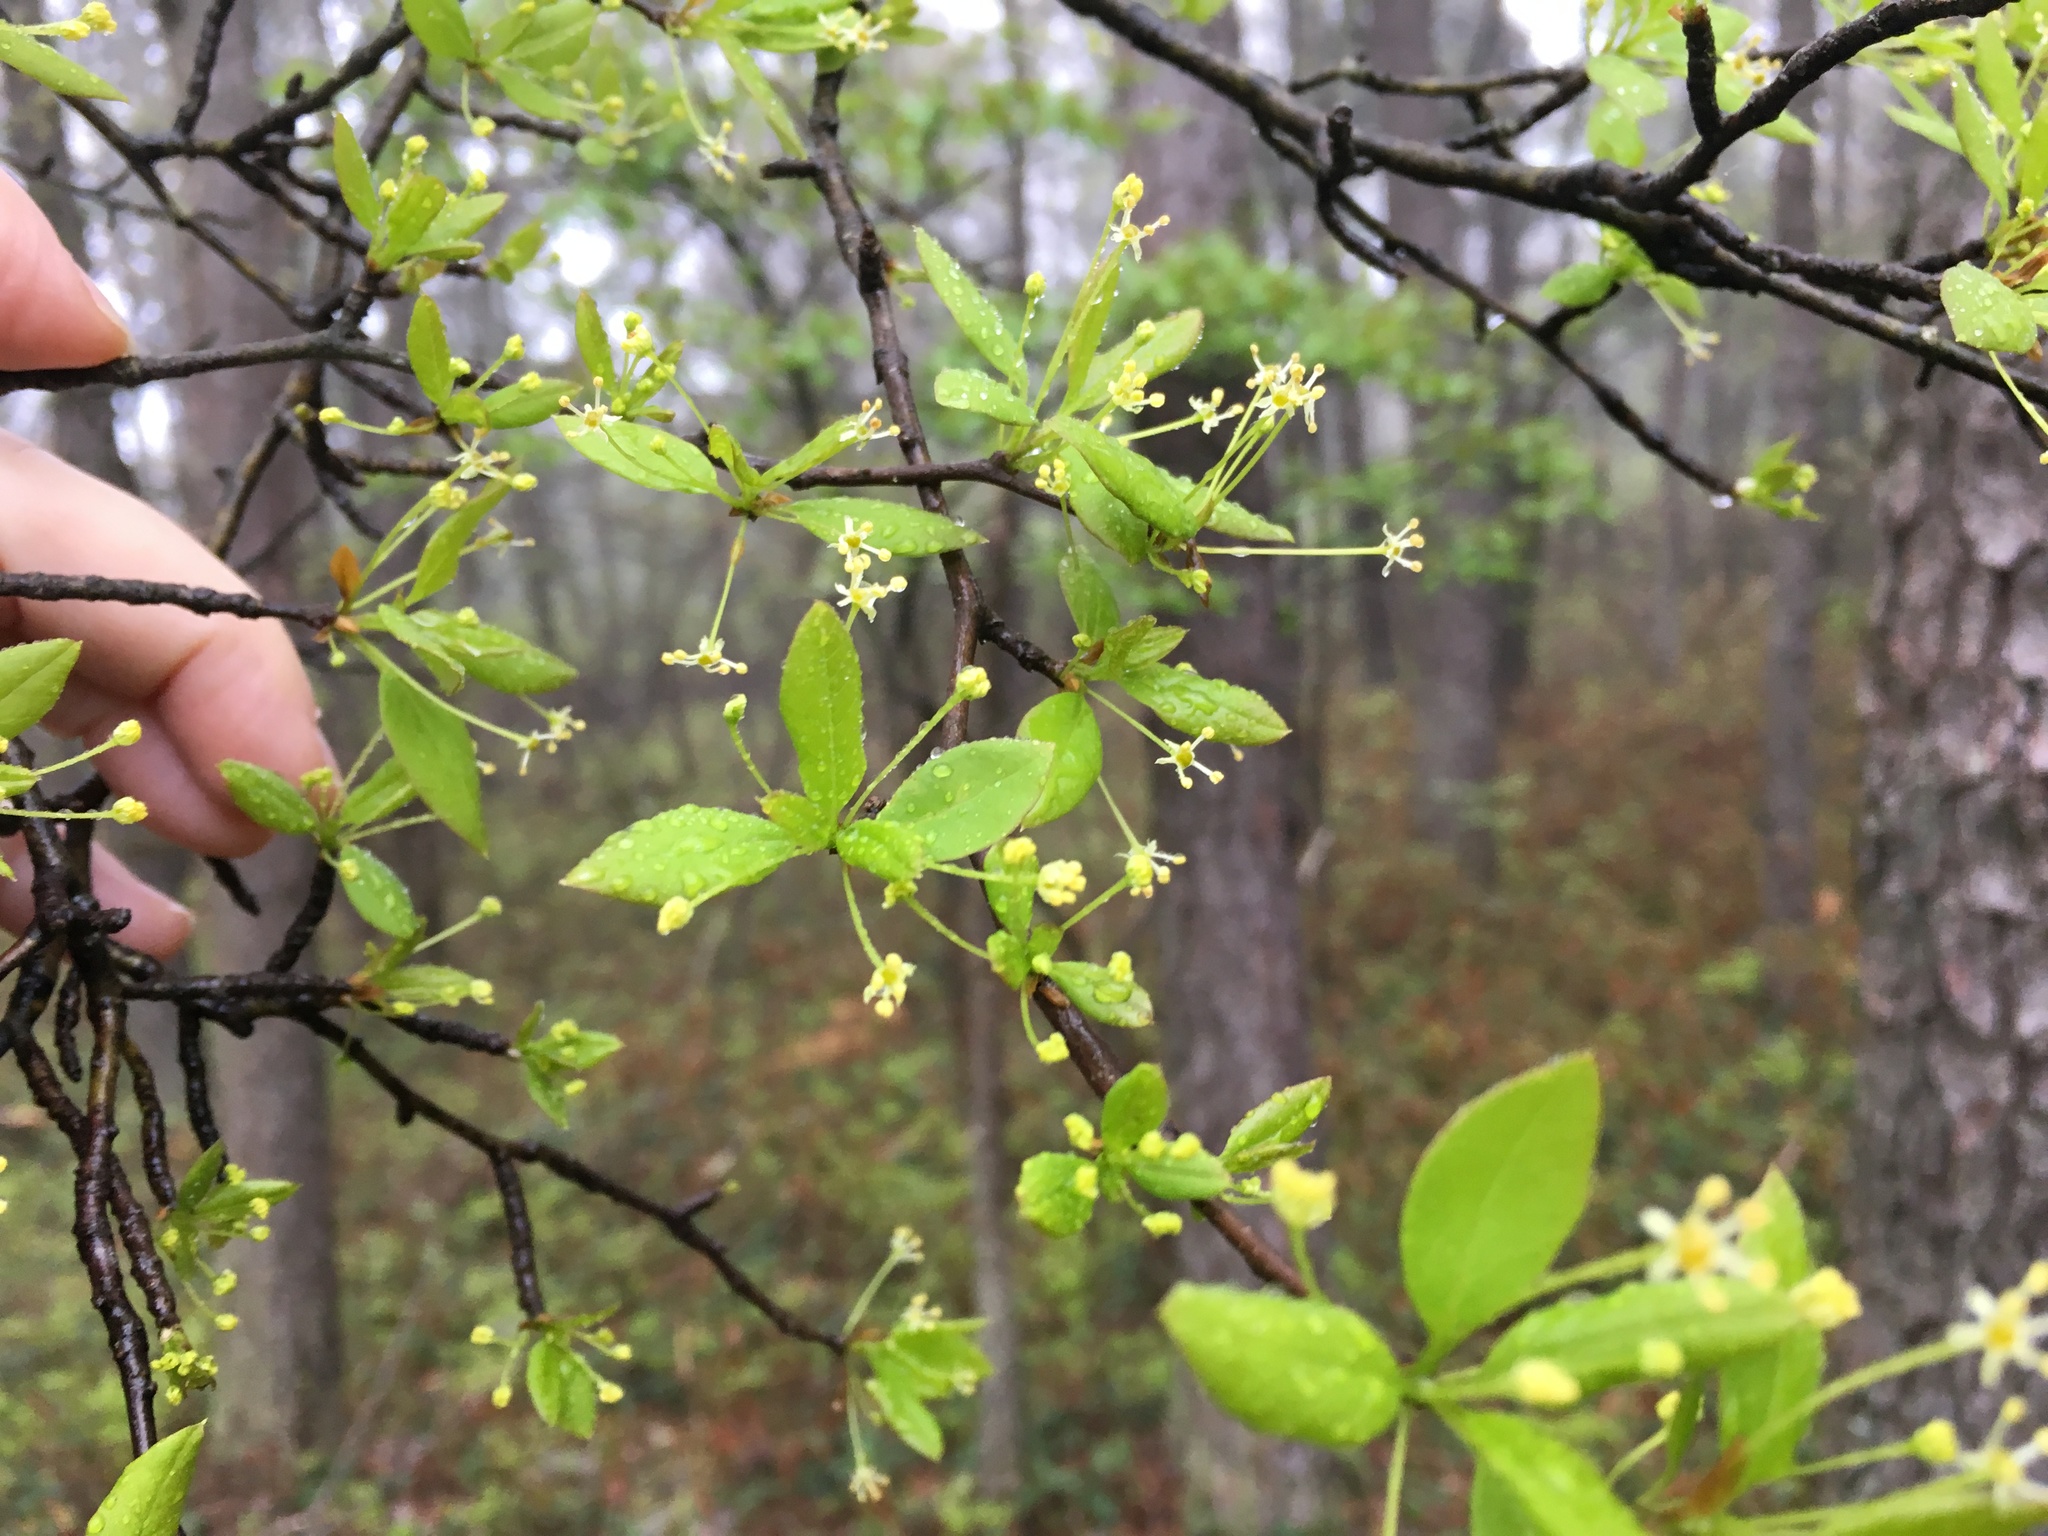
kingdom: Plantae
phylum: Tracheophyta
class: Magnoliopsida
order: Aquifoliales
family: Aquifoliaceae
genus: Ilex
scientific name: Ilex mucronata
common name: Catberry
